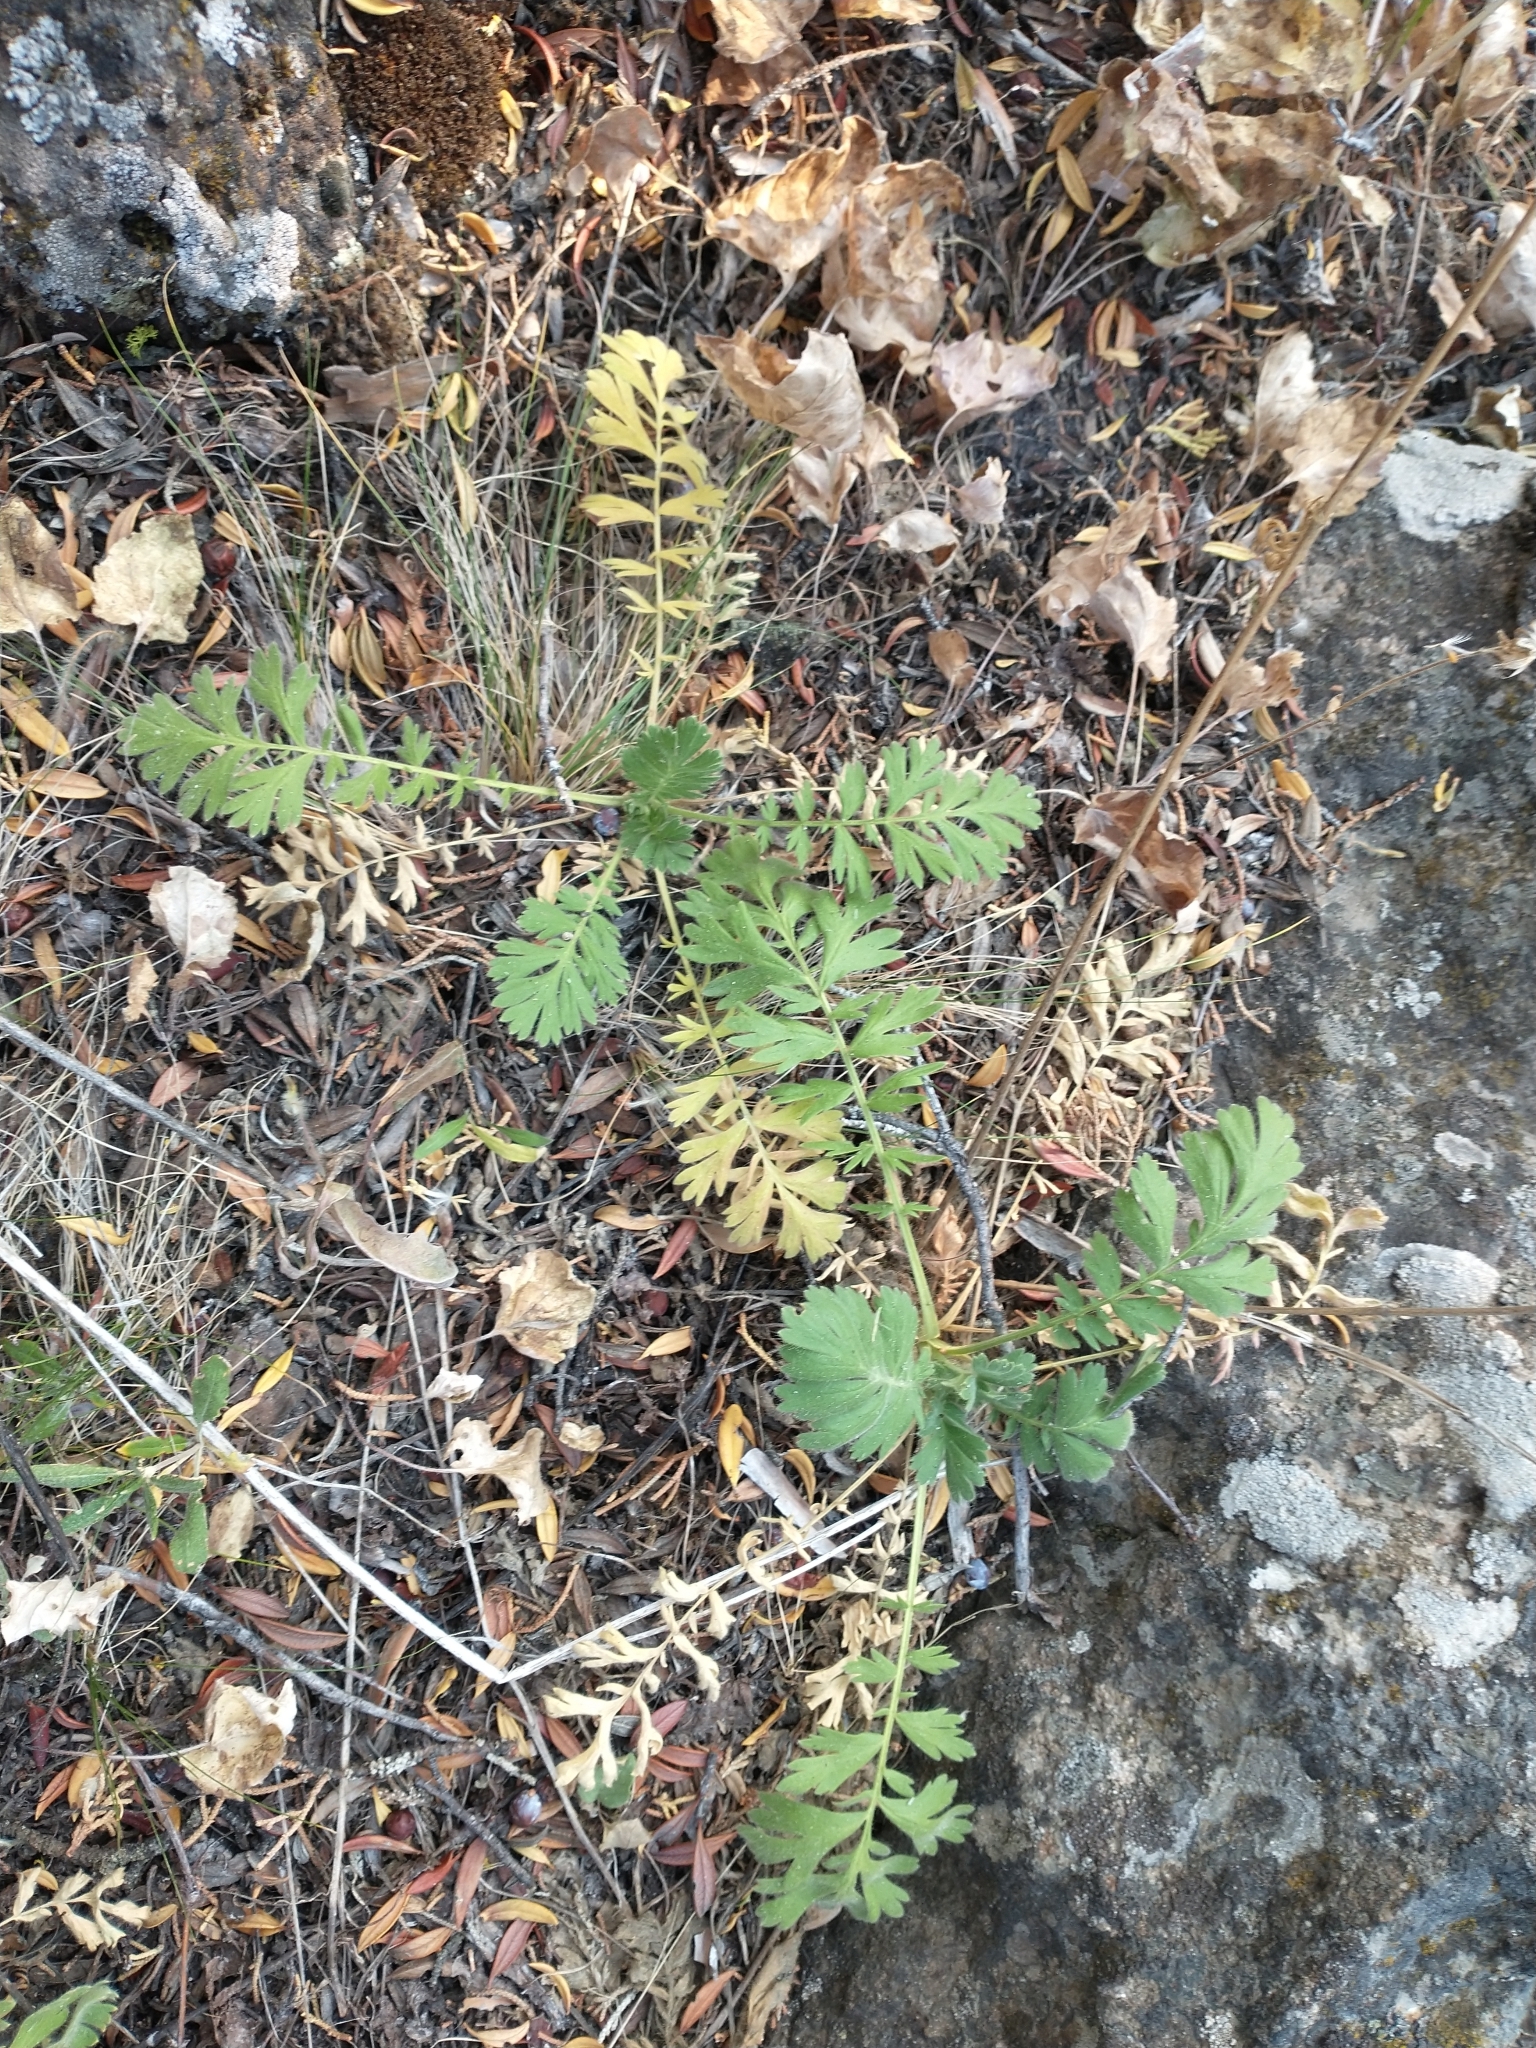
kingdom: Plantae
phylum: Tracheophyta
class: Magnoliopsida
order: Rosales
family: Rosaceae
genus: Geum
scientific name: Geum triflorum
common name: Old man's whiskers
